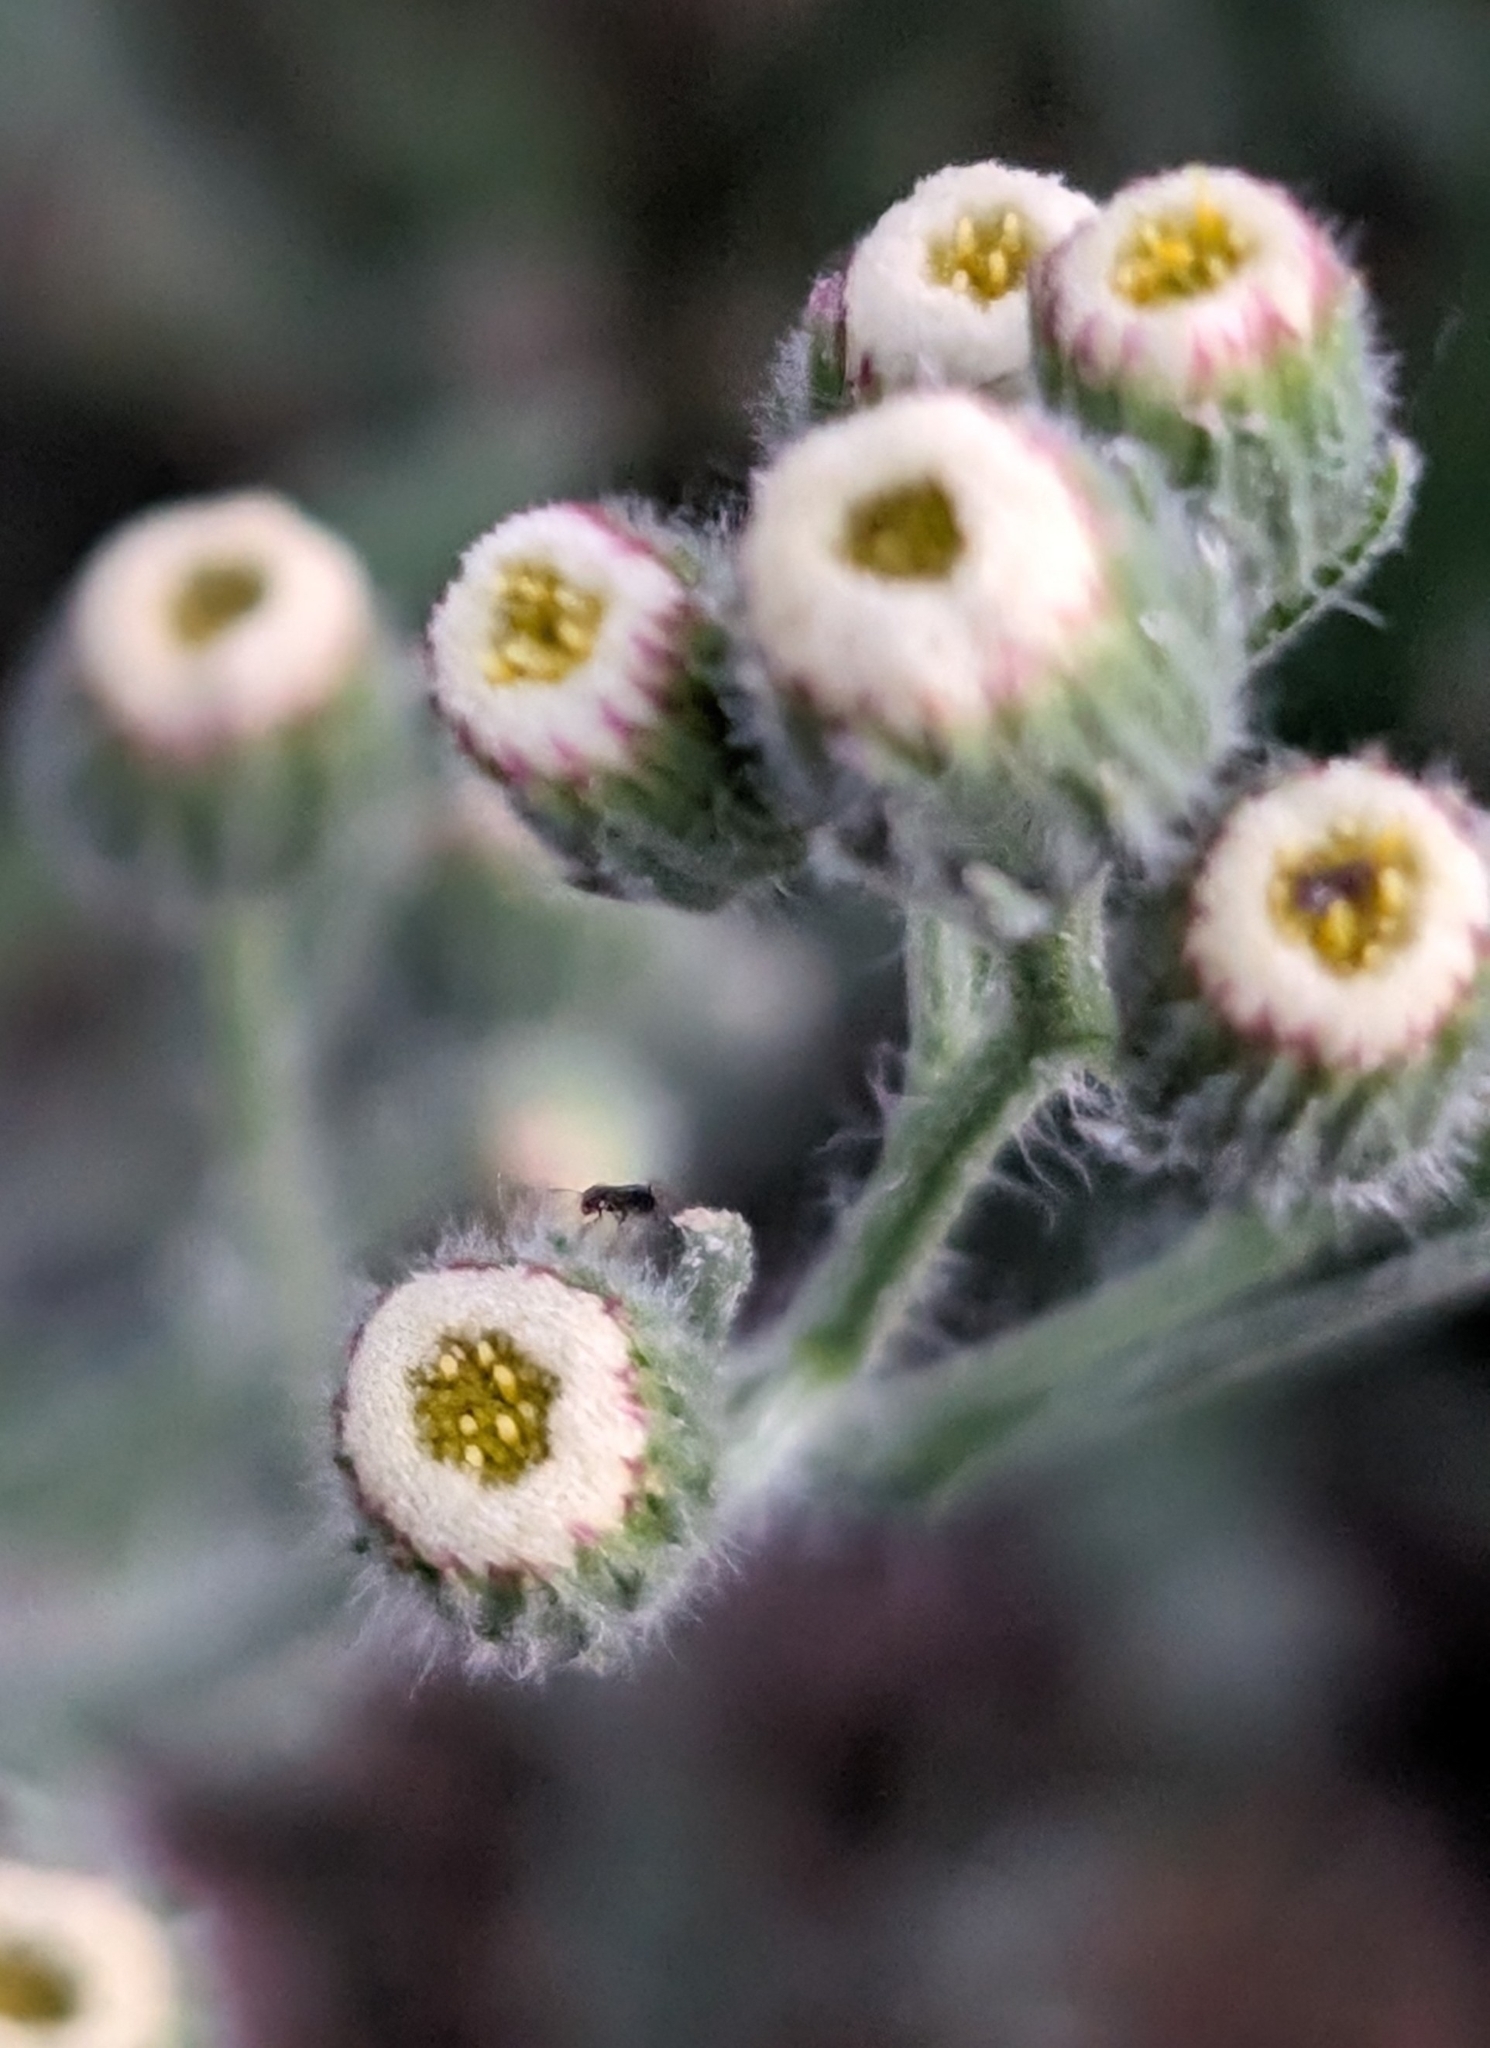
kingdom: Plantae
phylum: Tracheophyta
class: Magnoliopsida
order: Asterales
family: Asteraceae
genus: Erigeron
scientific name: Erigeron bonariensis
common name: Argentine fleabane
